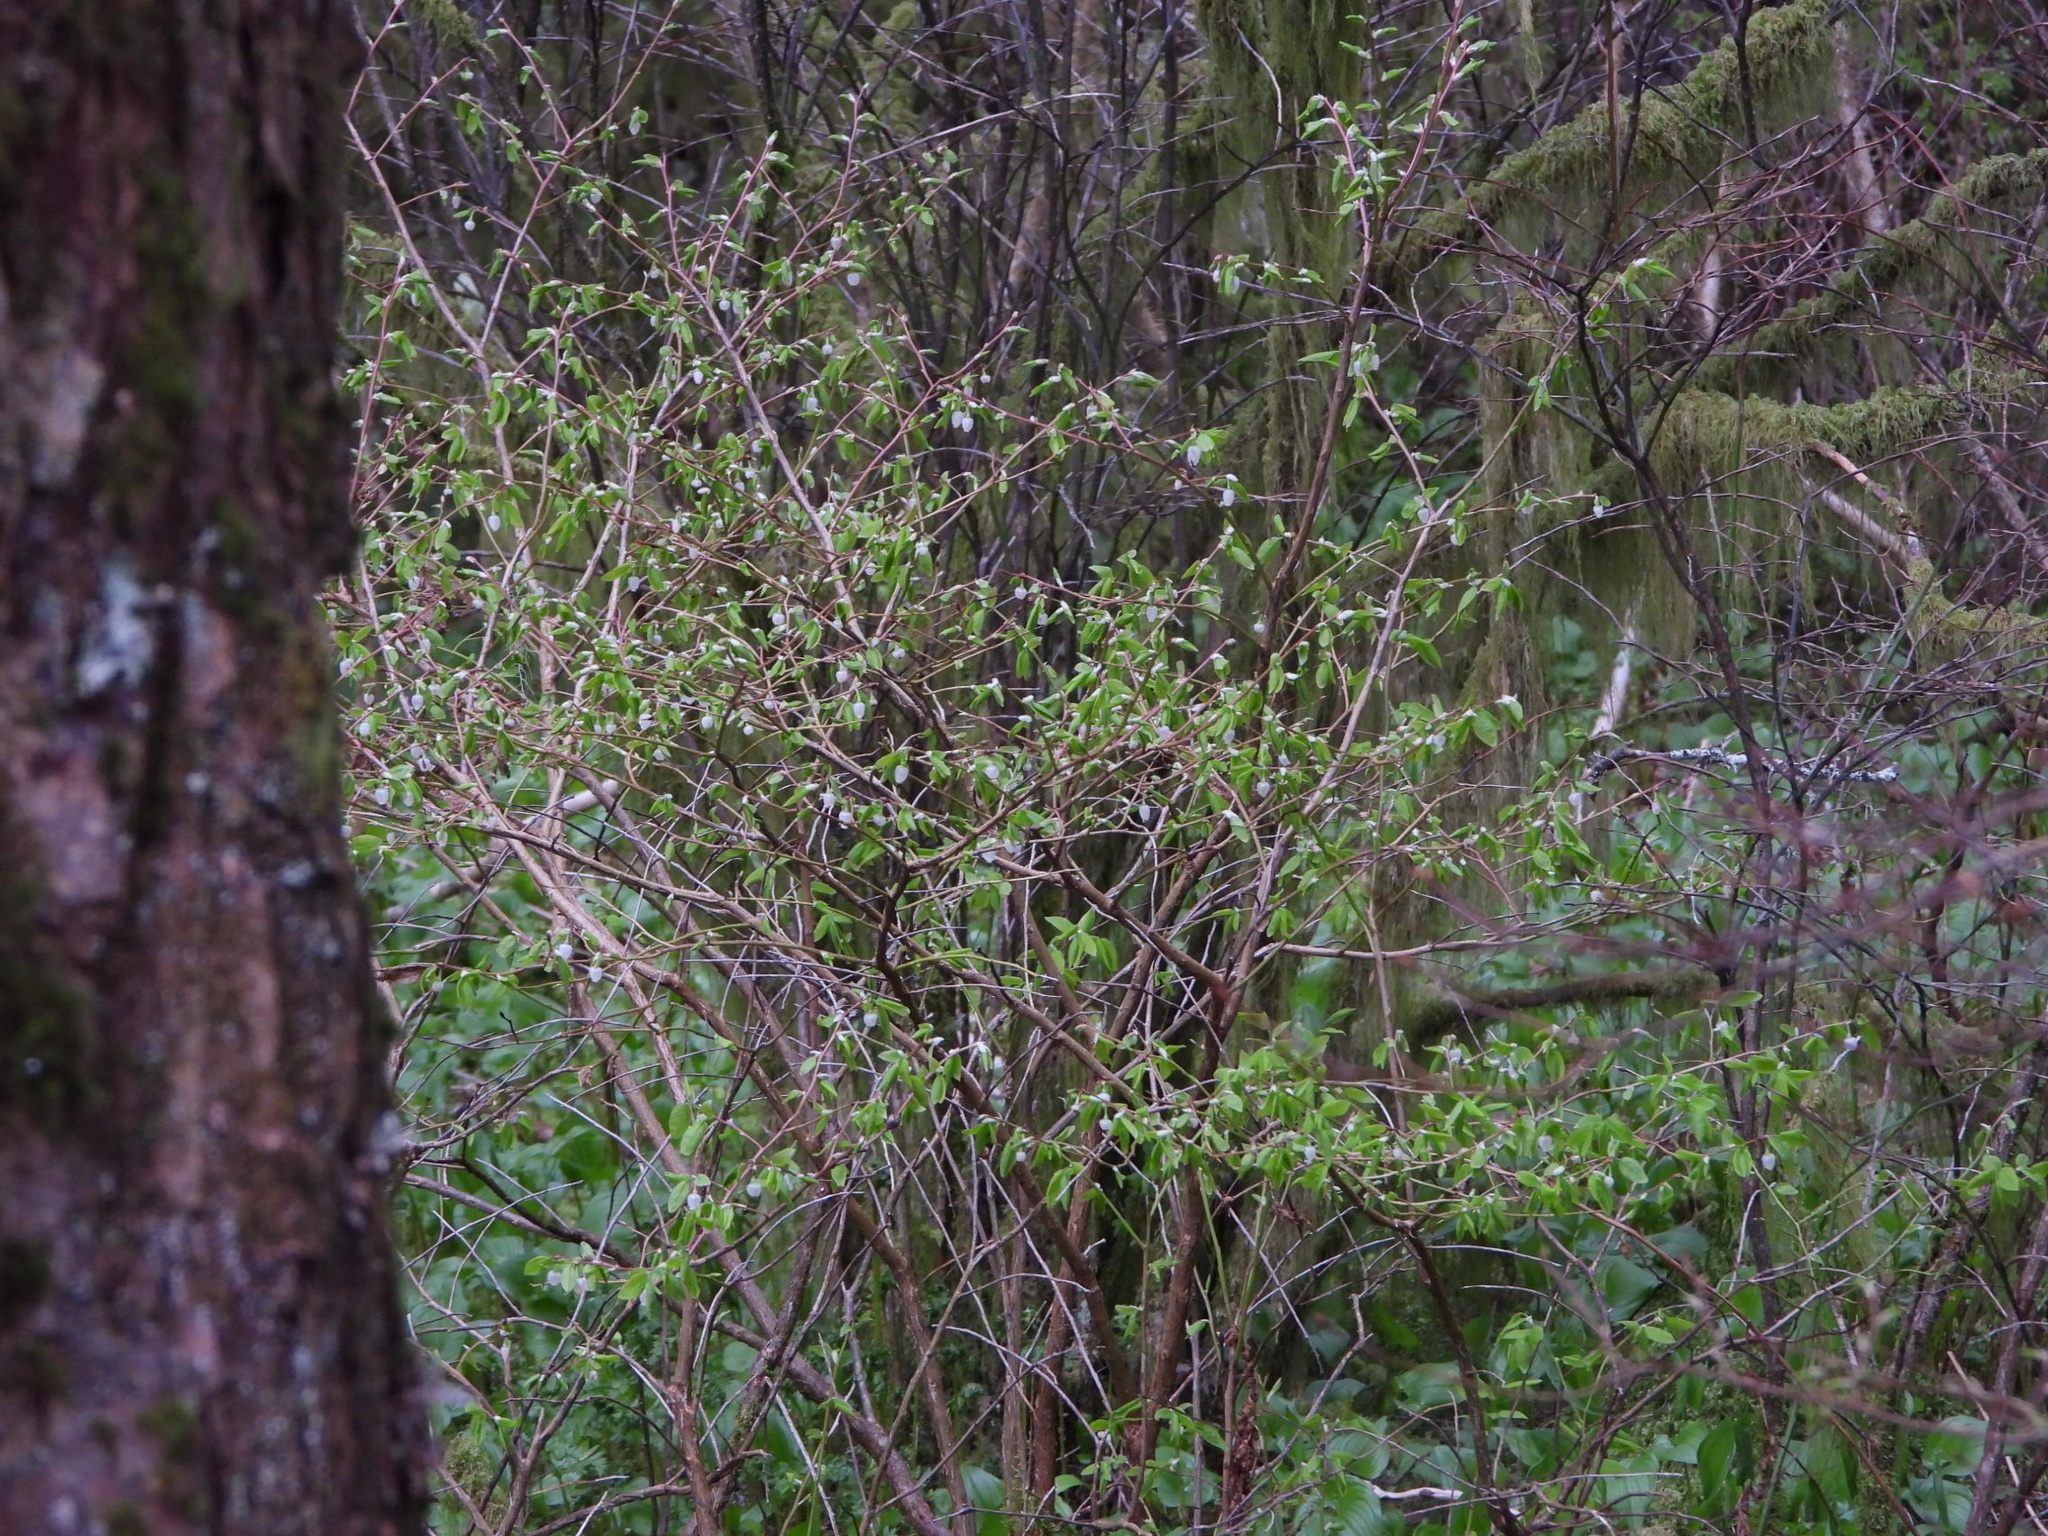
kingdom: Plantae
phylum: Tracheophyta
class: Magnoliopsida
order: Ericales
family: Ericaceae
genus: Vaccinium
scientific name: Vaccinium ovalifolium
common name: Early blueberry
